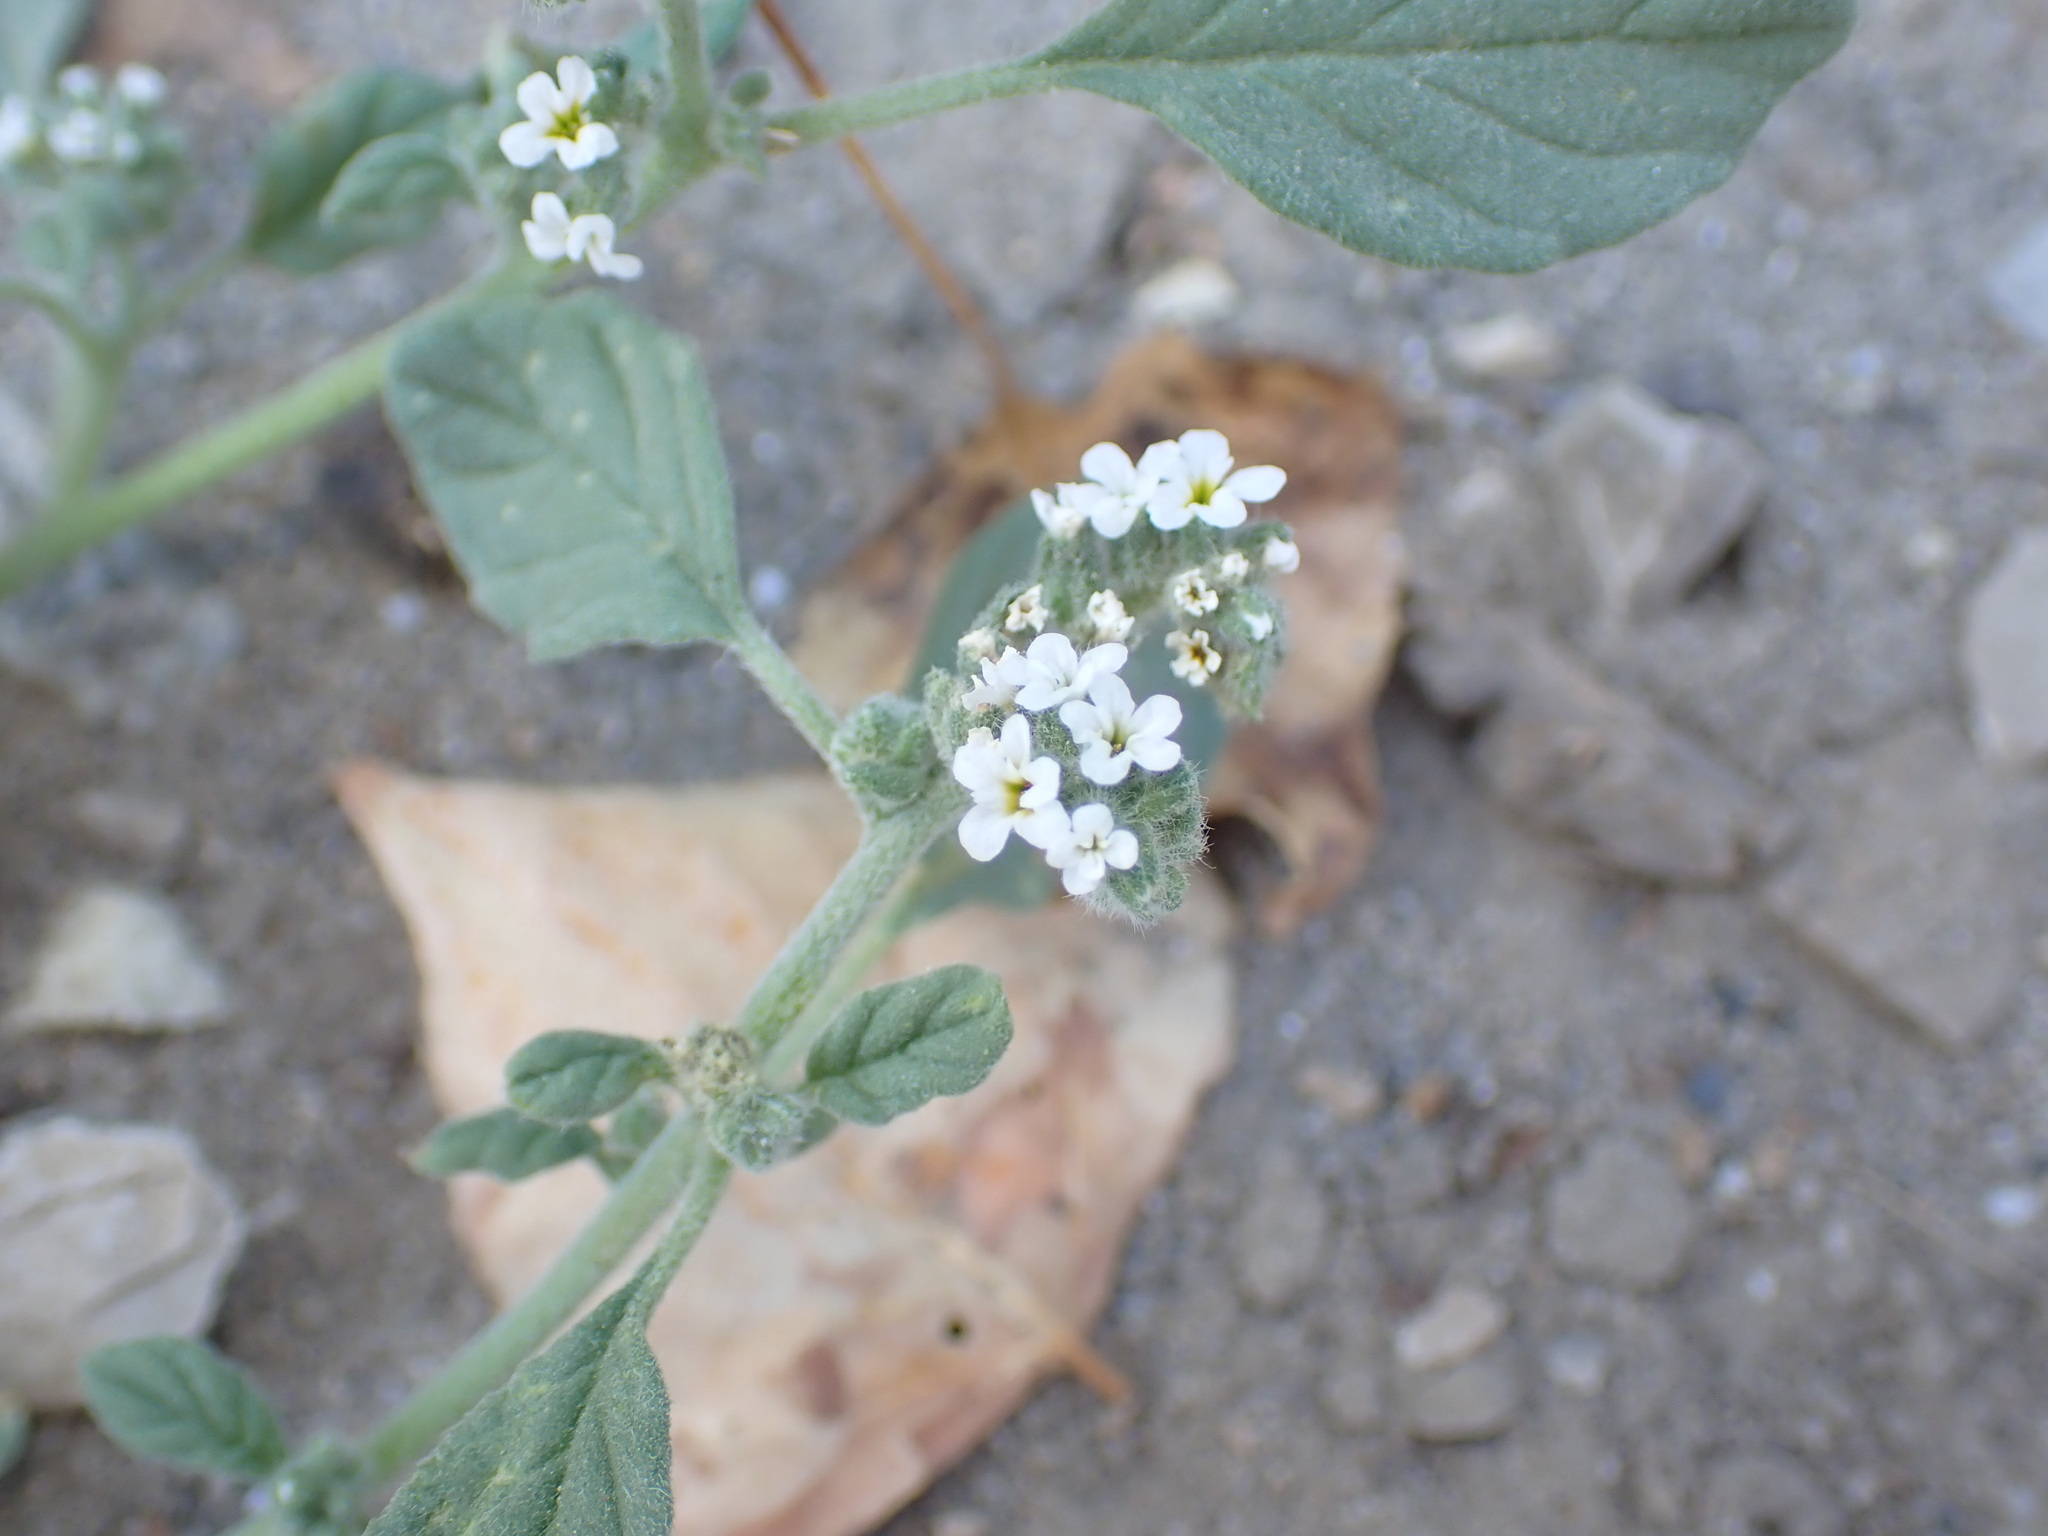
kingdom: Plantae
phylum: Tracheophyta
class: Magnoliopsida
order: Boraginales
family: Heliotropiaceae
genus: Heliotropium
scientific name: Heliotropium europaeum
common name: European heliotrope
